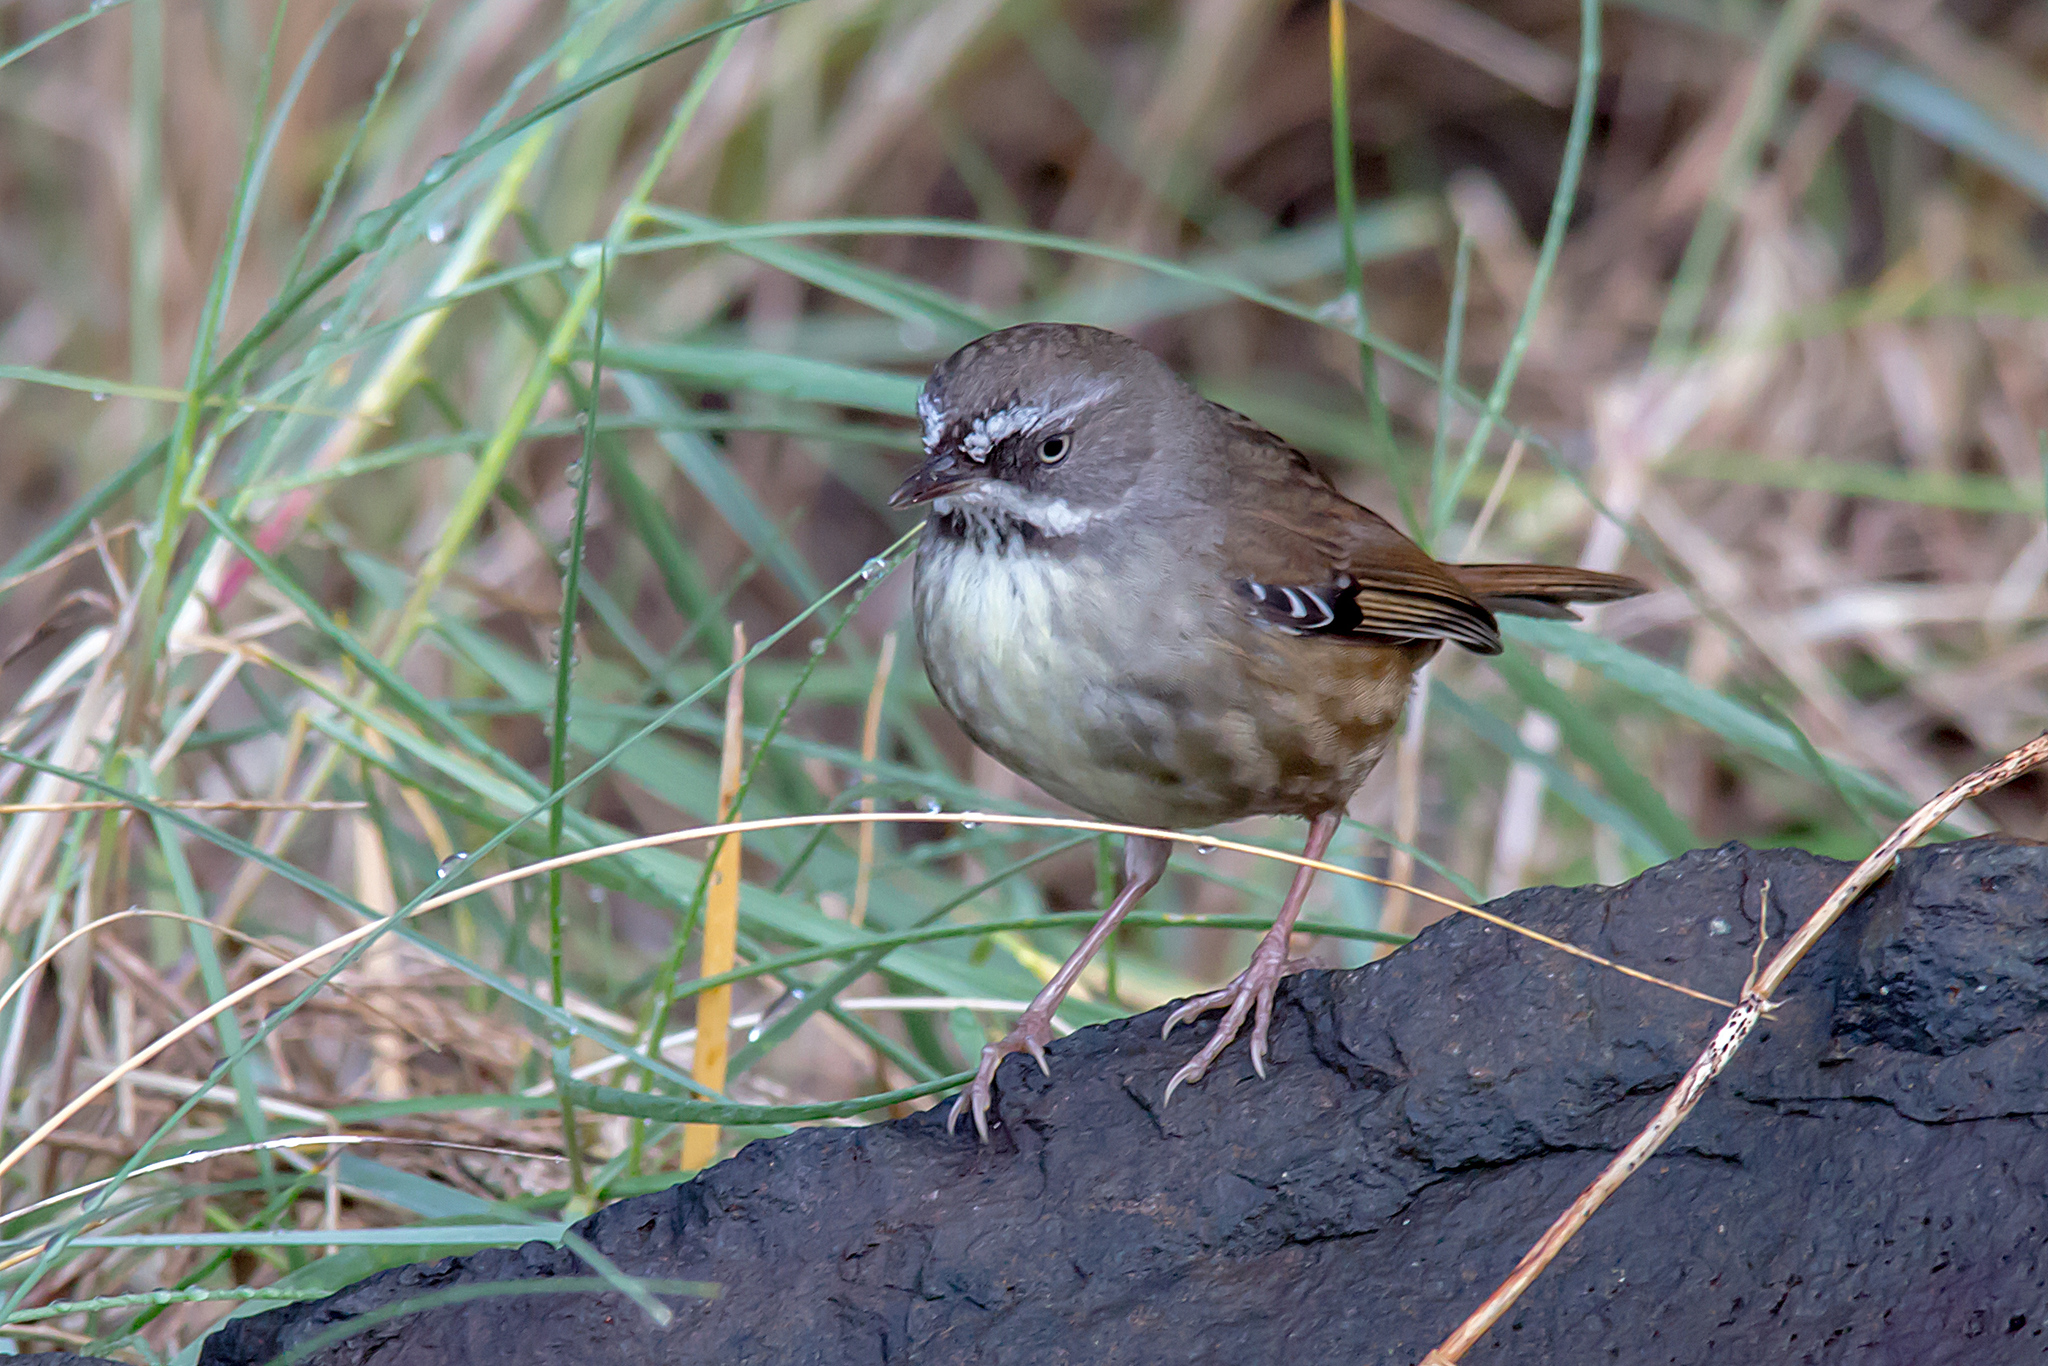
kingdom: Animalia
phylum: Chordata
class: Aves
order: Passeriformes
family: Acanthizidae
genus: Sericornis
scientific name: Sericornis frontalis
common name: White-browed scrubwren
